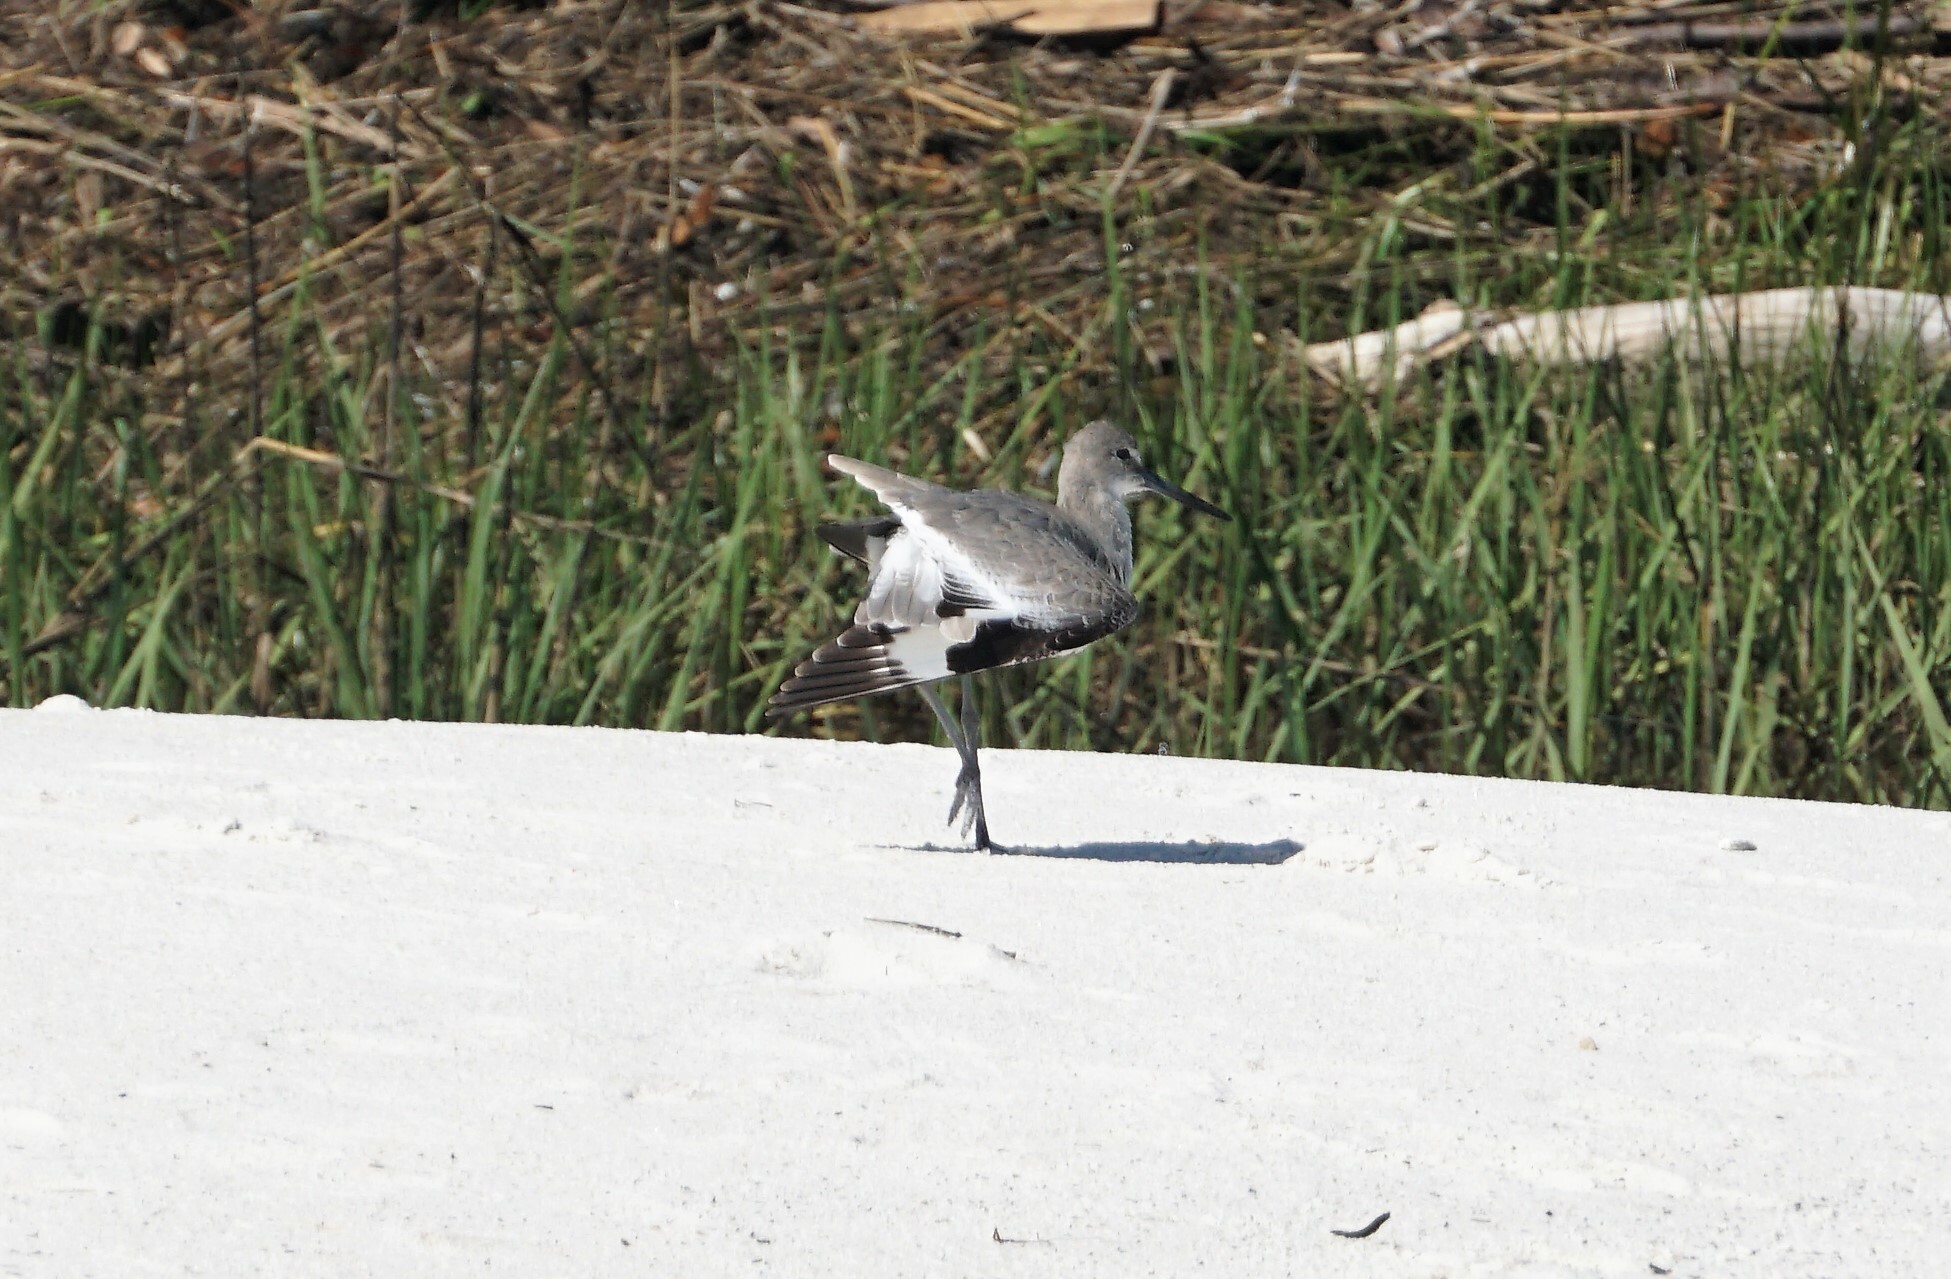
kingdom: Animalia
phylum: Chordata
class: Aves
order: Charadriiformes
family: Scolopacidae
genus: Tringa
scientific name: Tringa semipalmata
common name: Willet
